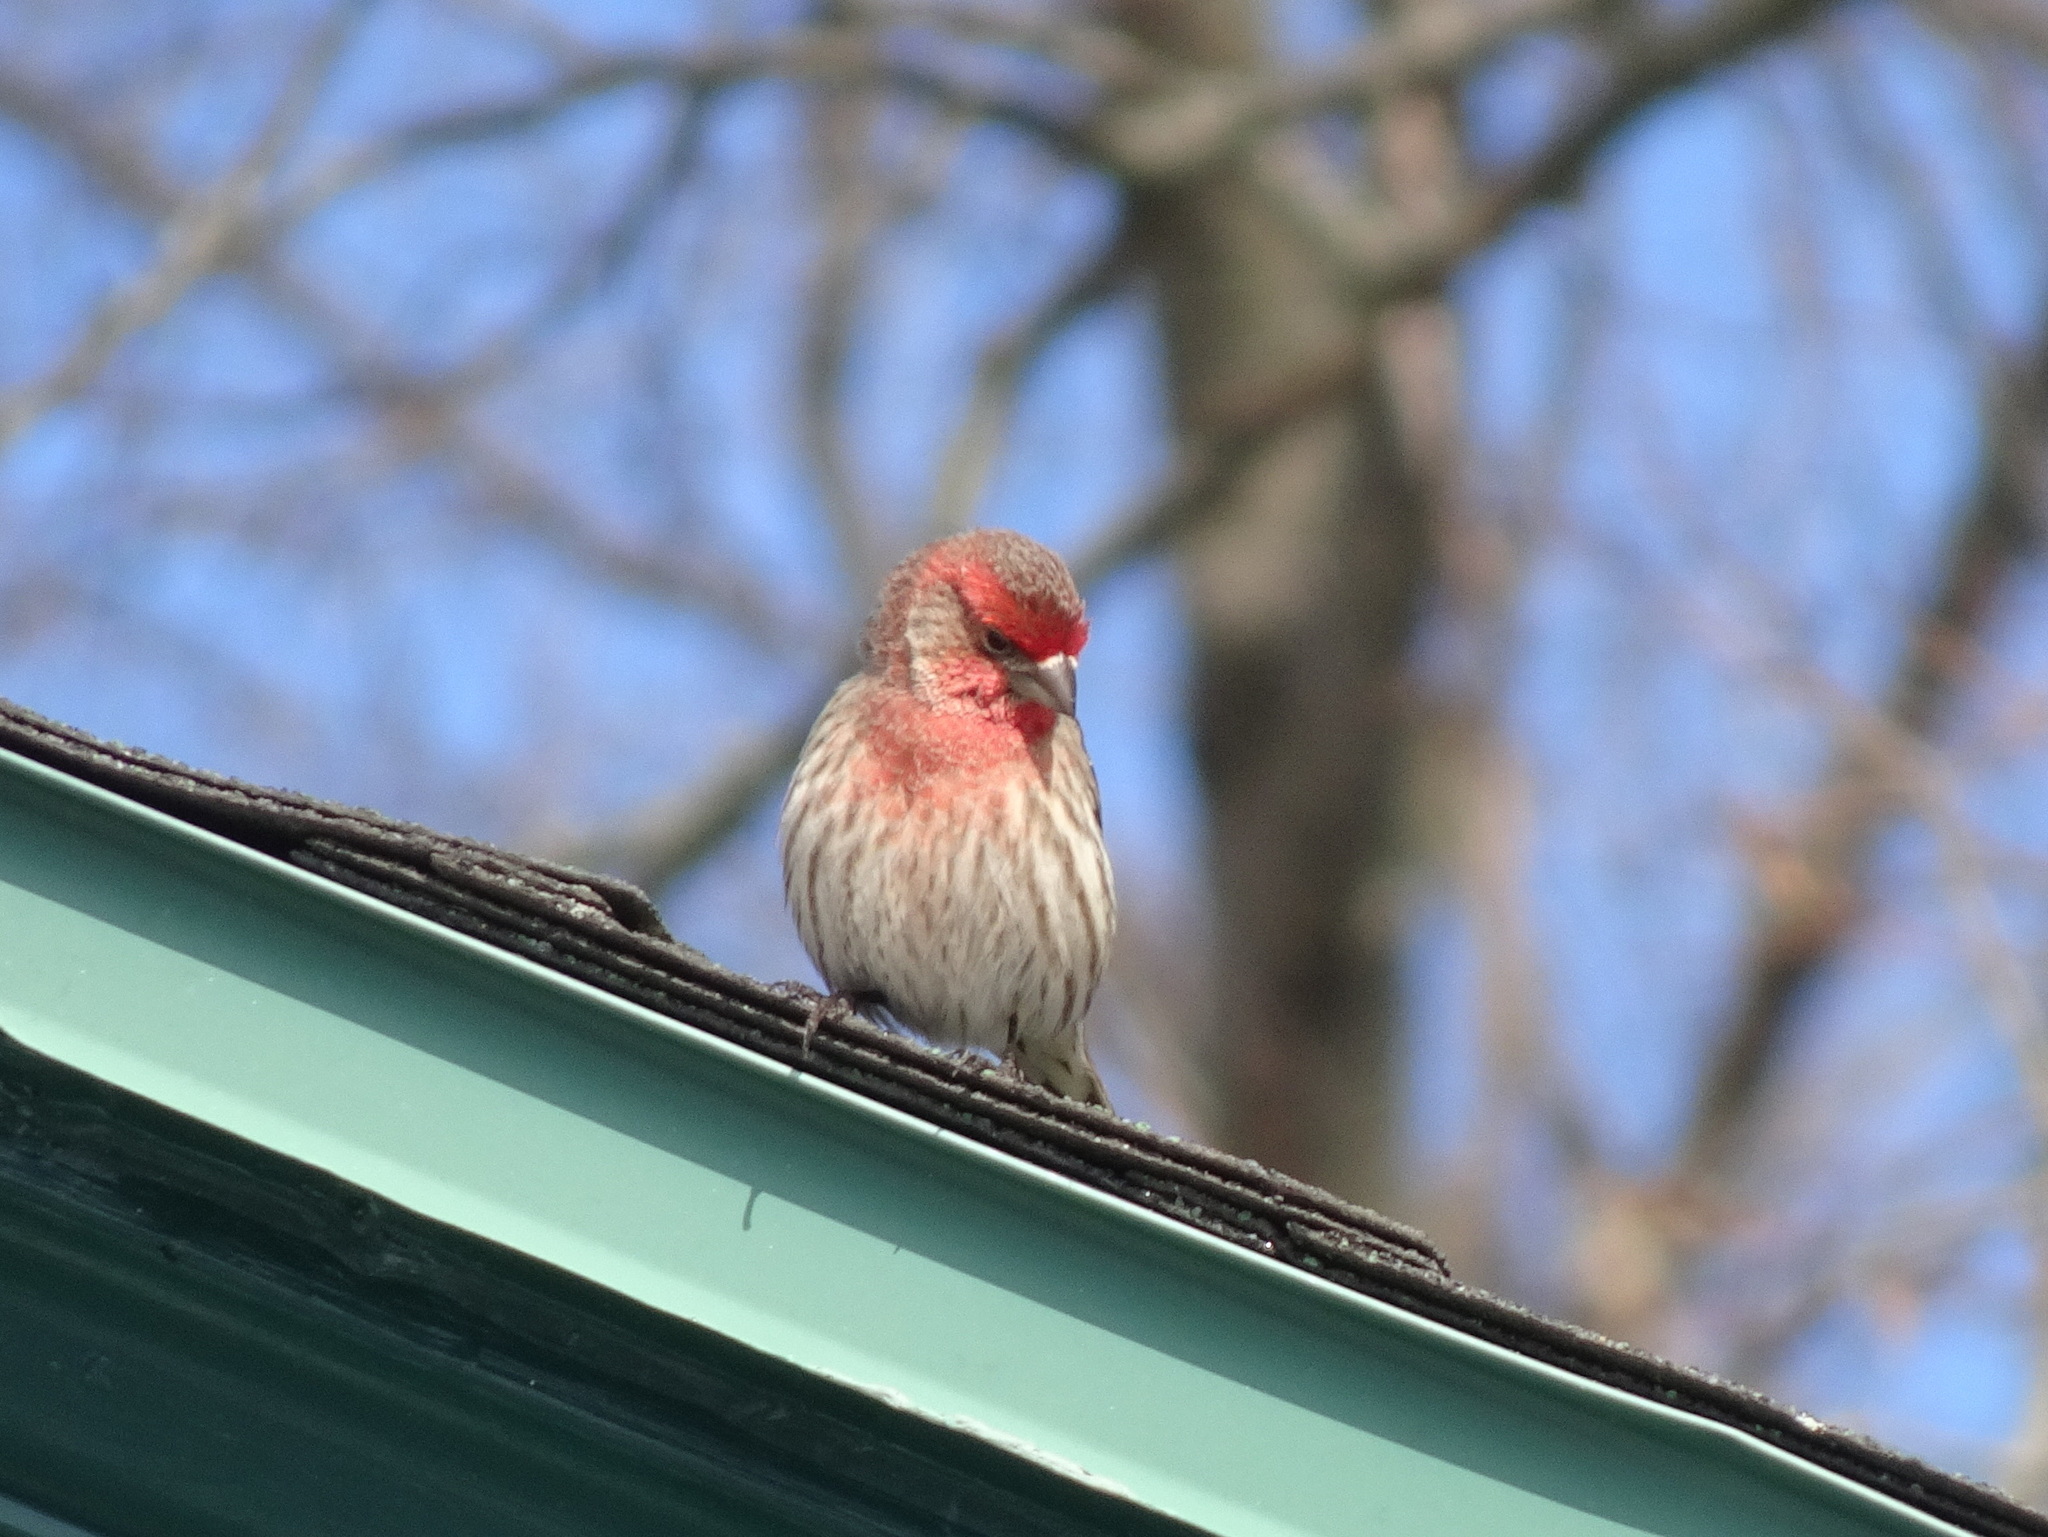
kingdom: Animalia
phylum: Chordata
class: Aves
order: Passeriformes
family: Fringillidae
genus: Haemorhous
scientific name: Haemorhous mexicanus
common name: House finch
